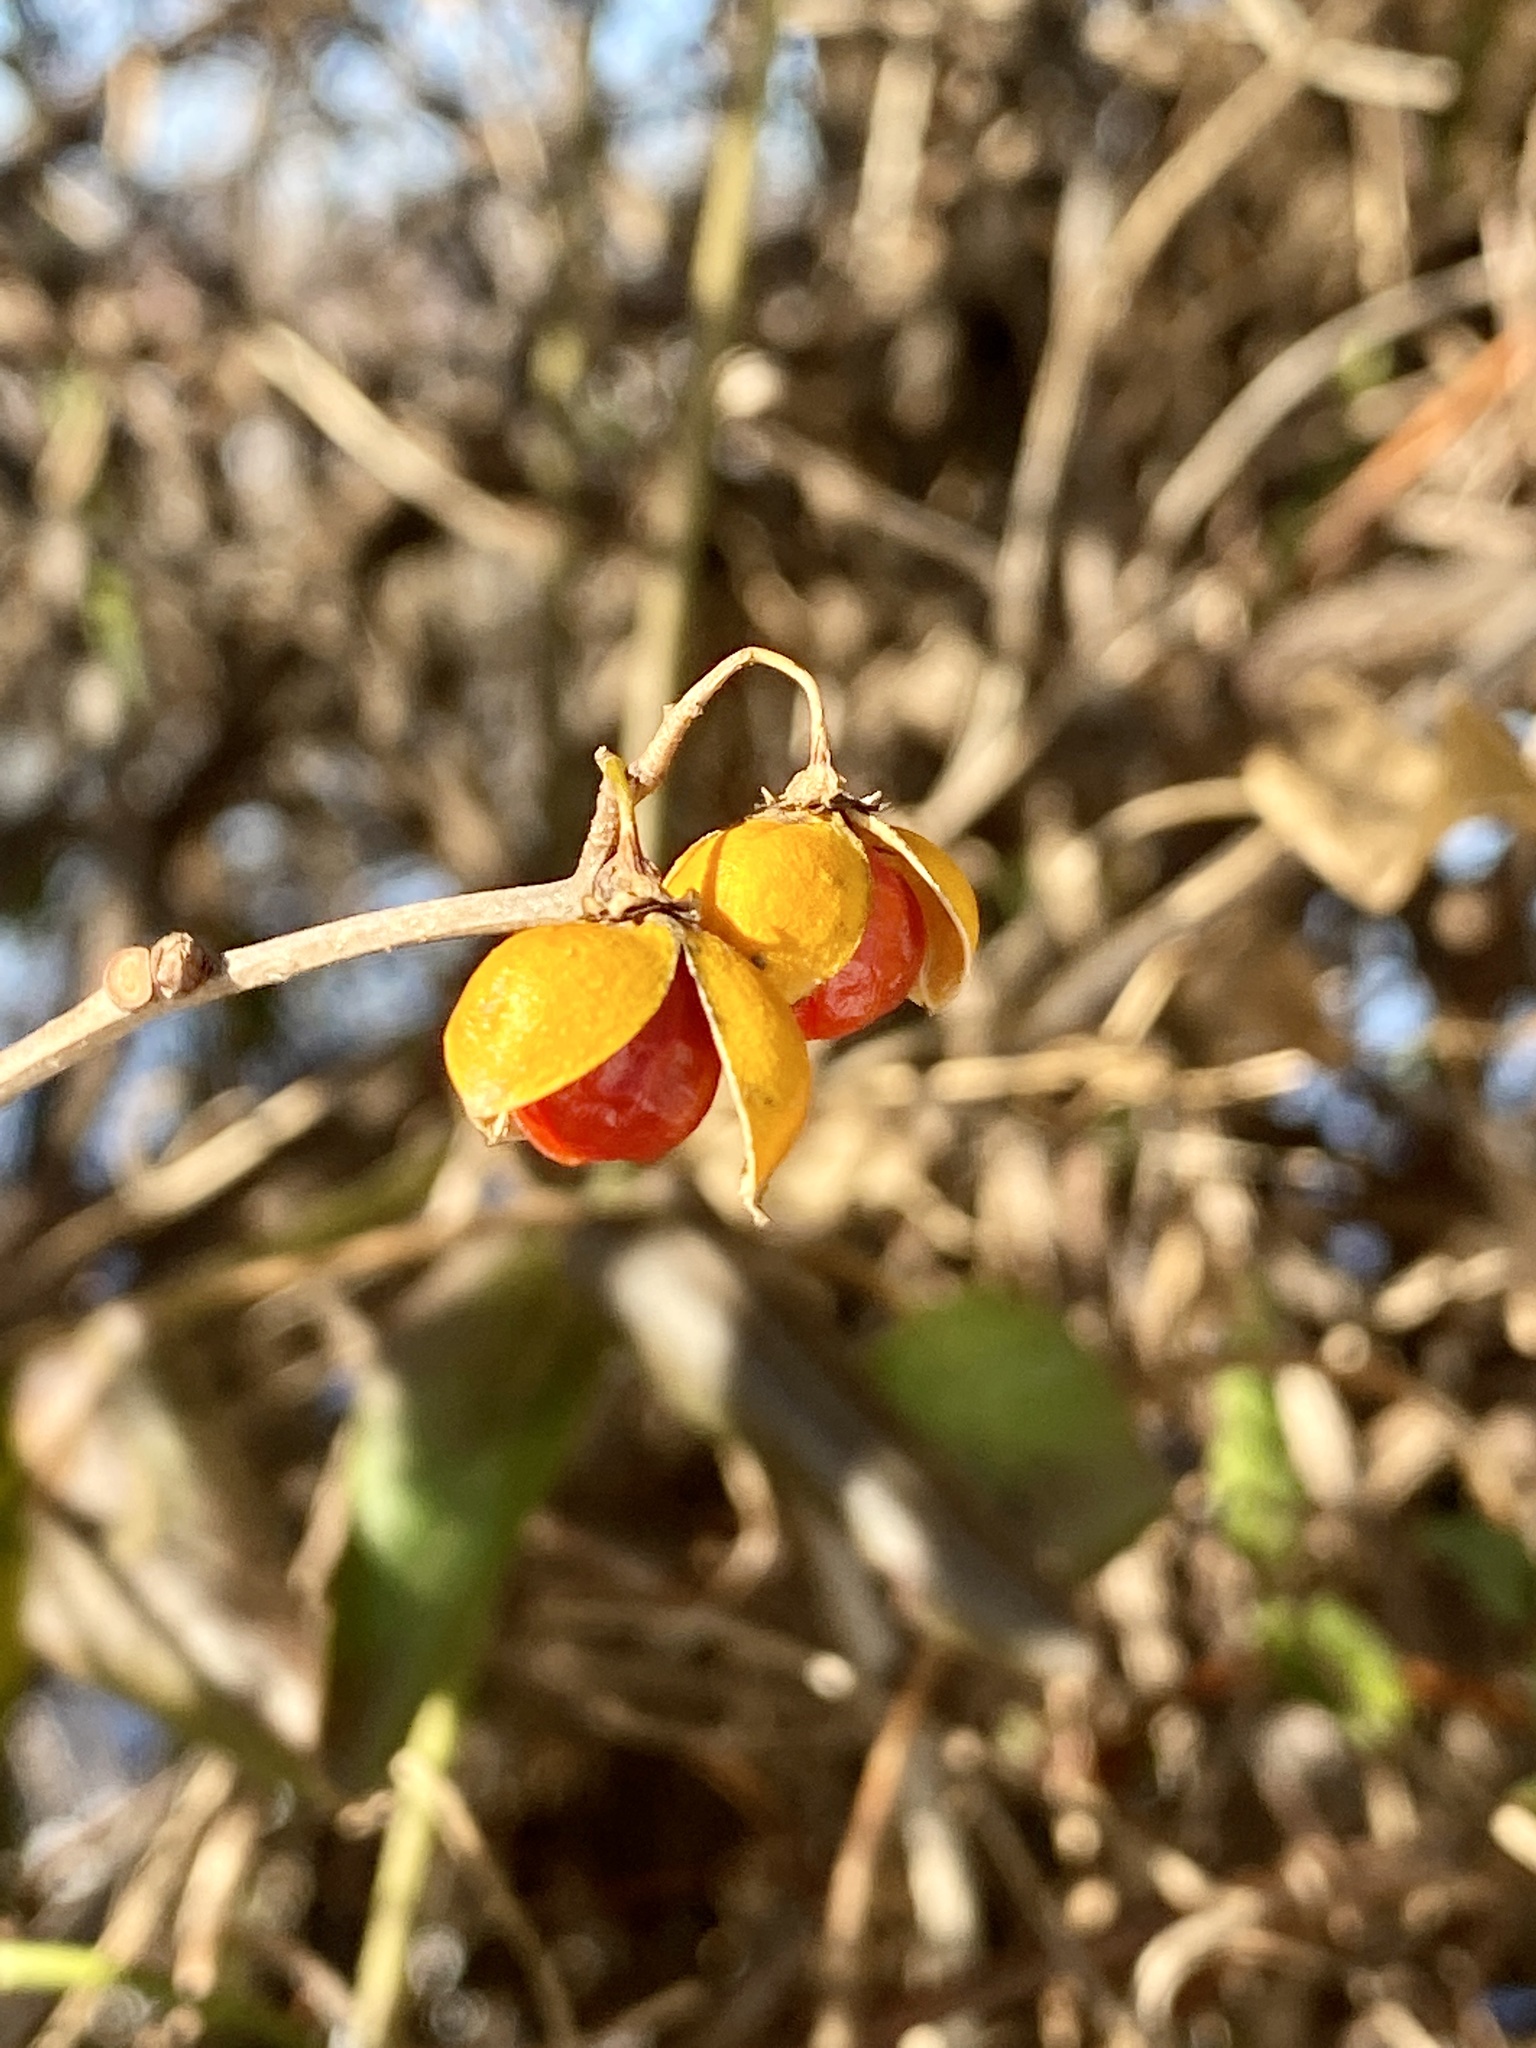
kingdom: Plantae
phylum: Tracheophyta
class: Magnoliopsida
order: Celastrales
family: Celastraceae
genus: Celastrus
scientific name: Celastrus orbiculatus
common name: Oriental bittersweet
